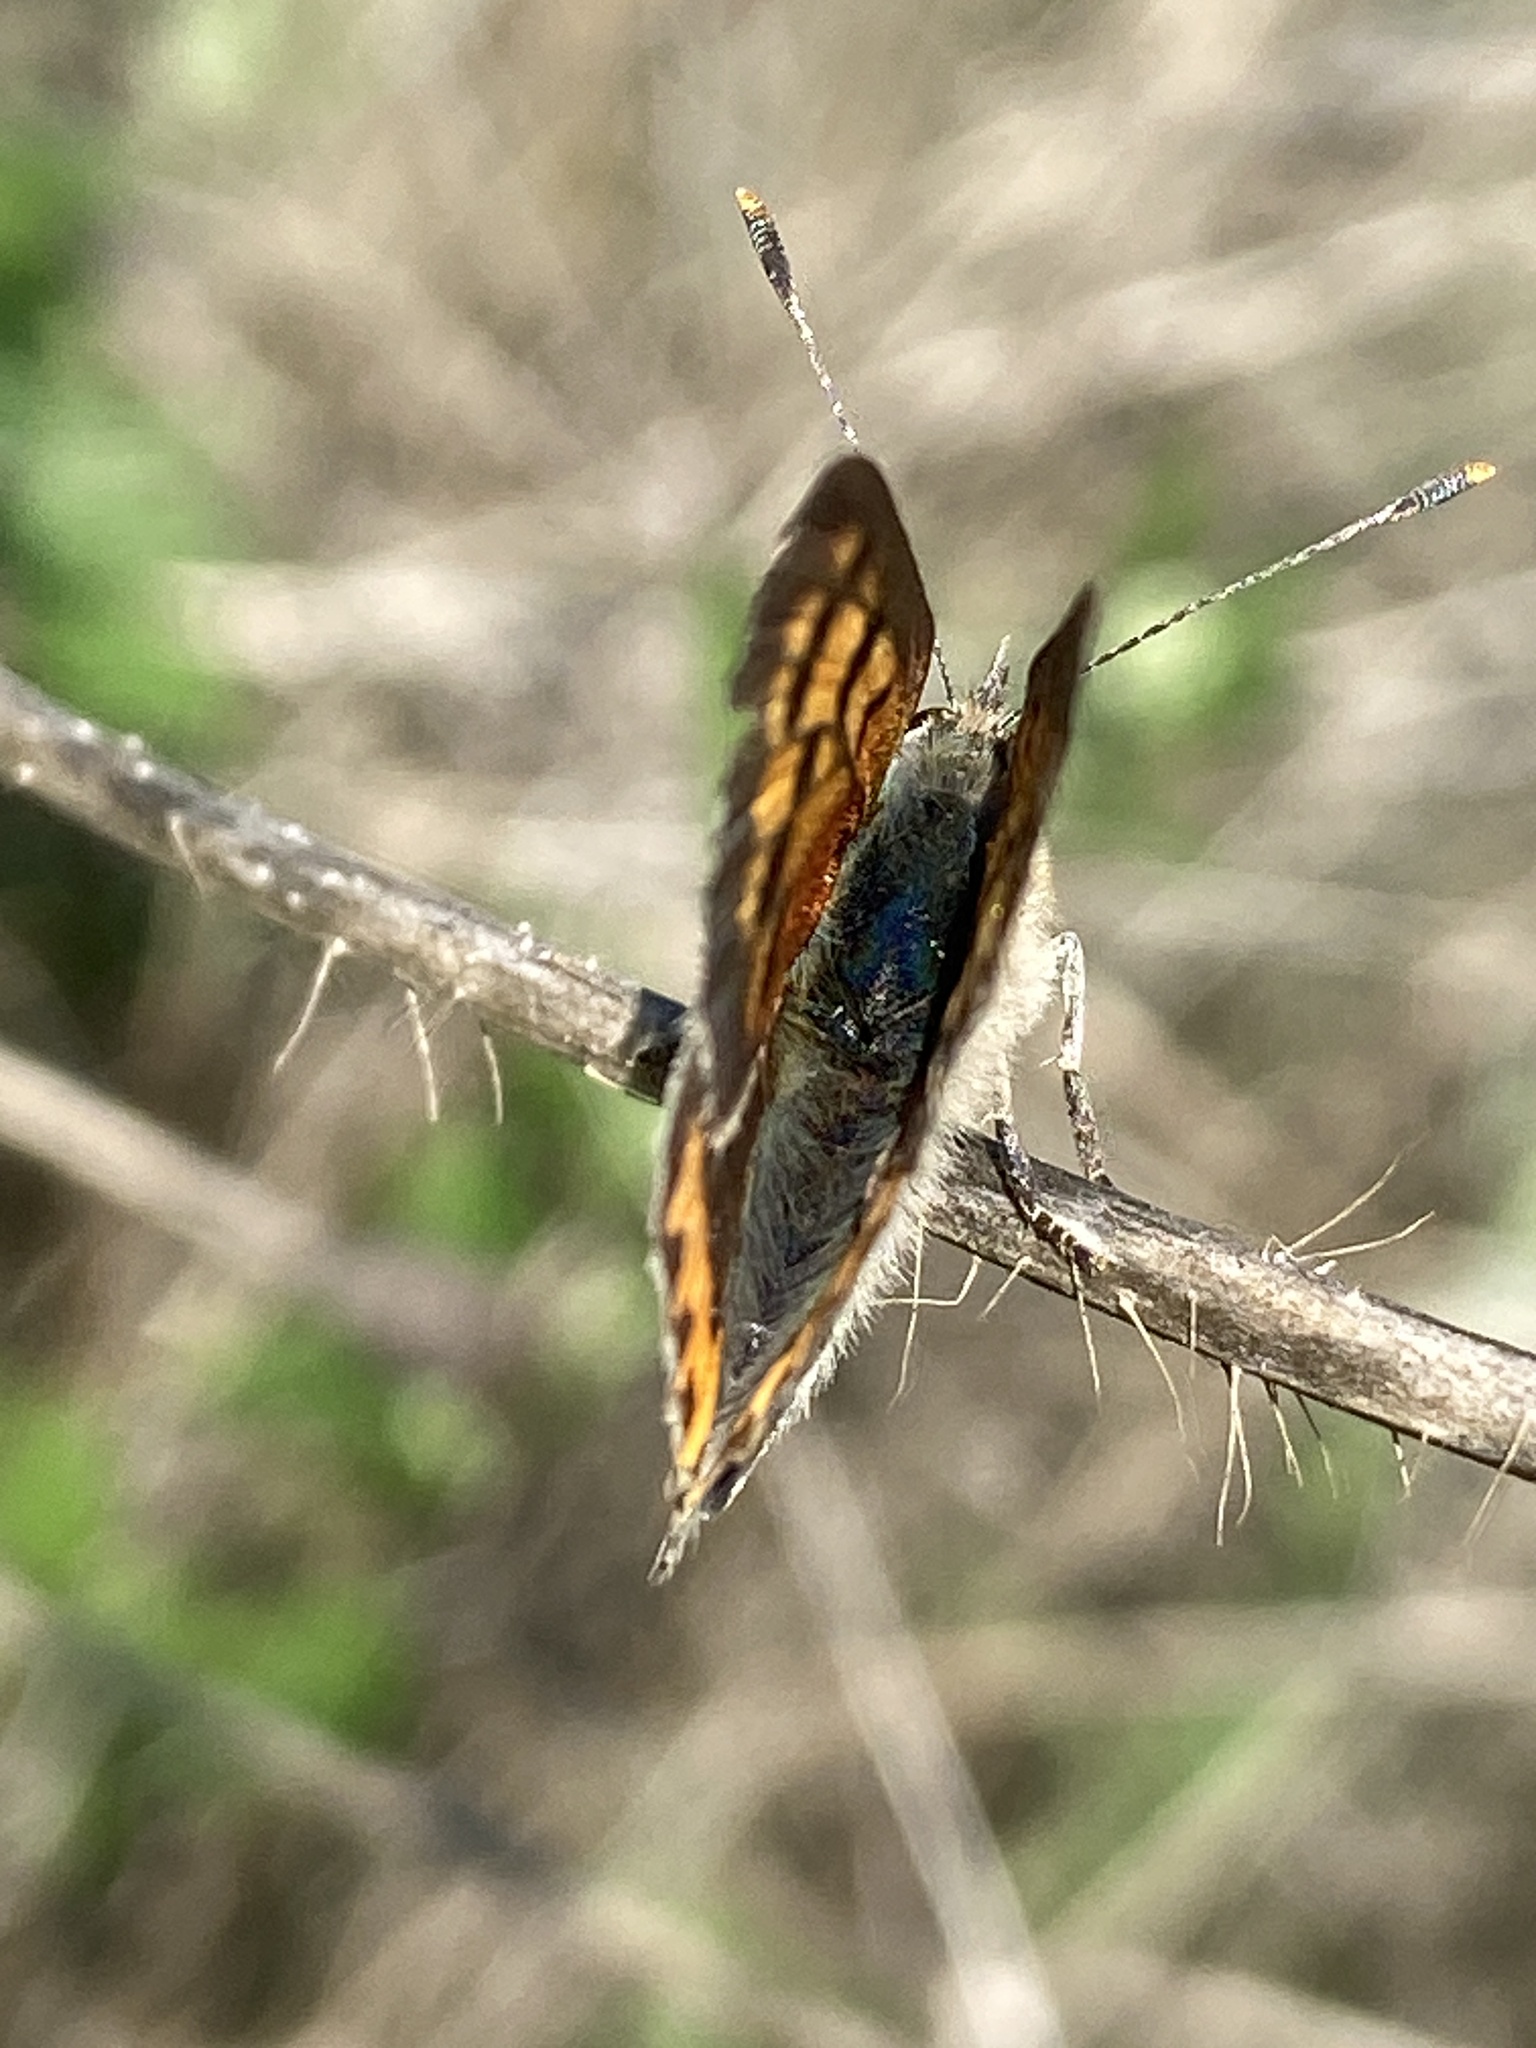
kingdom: Animalia
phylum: Arthropoda
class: Insecta
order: Lepidoptera
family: Lycaenidae
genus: Lycaena
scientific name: Lycaena phlaeas
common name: Small copper
